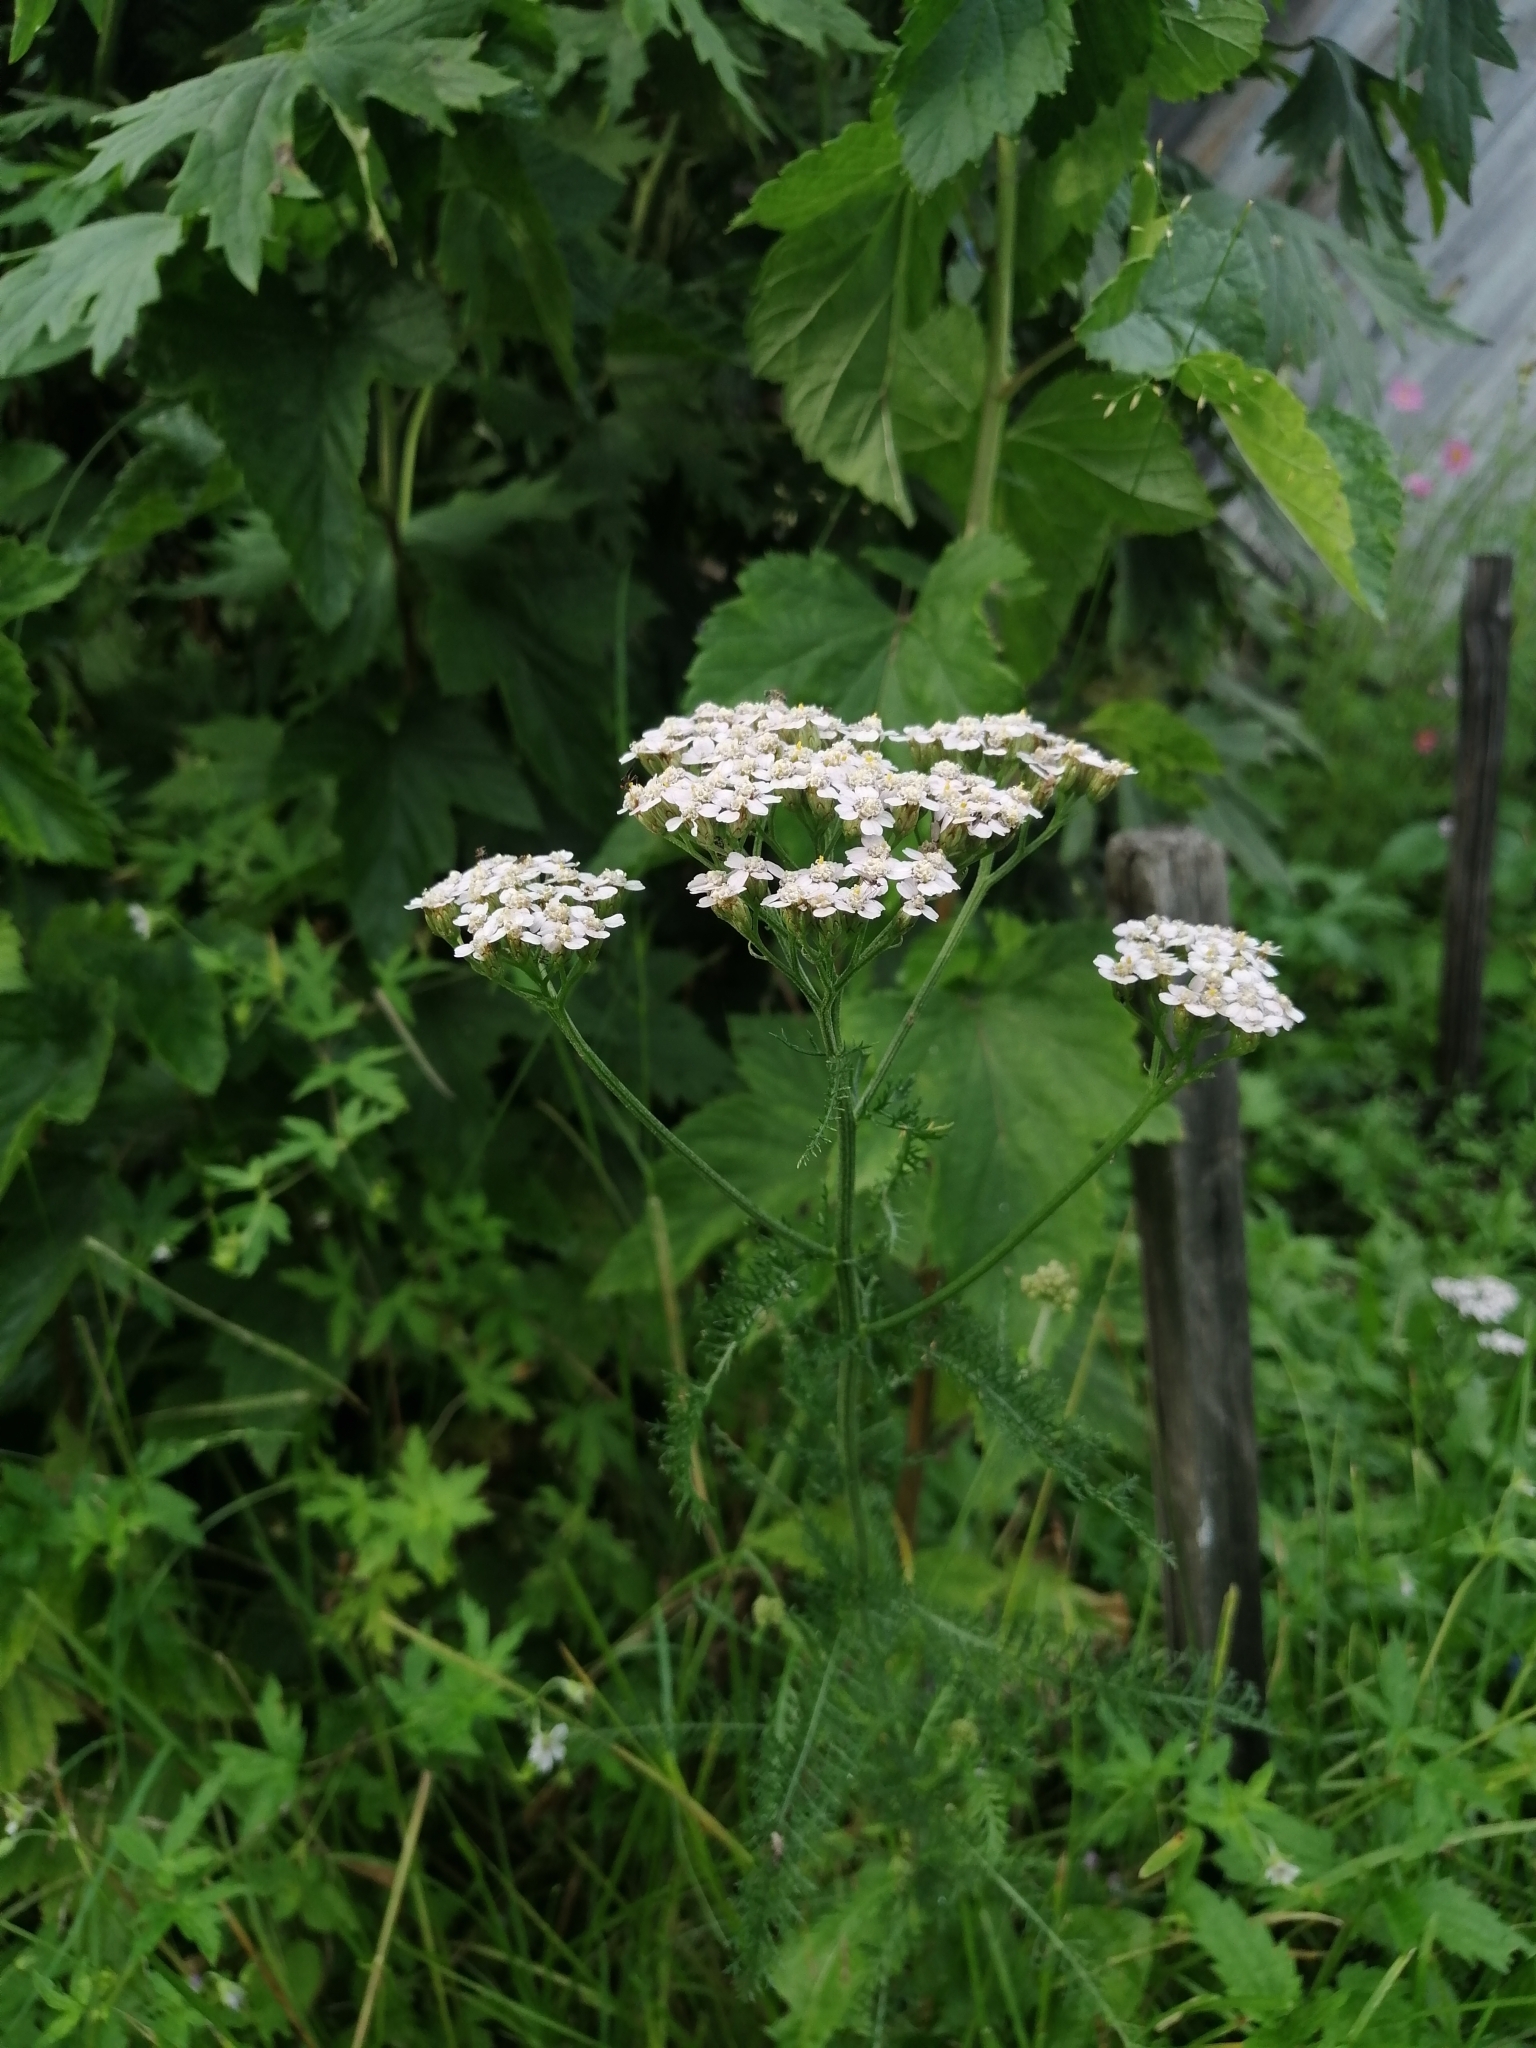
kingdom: Plantae
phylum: Tracheophyta
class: Magnoliopsida
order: Asterales
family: Asteraceae
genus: Achillea
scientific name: Achillea millefolium
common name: Yarrow
